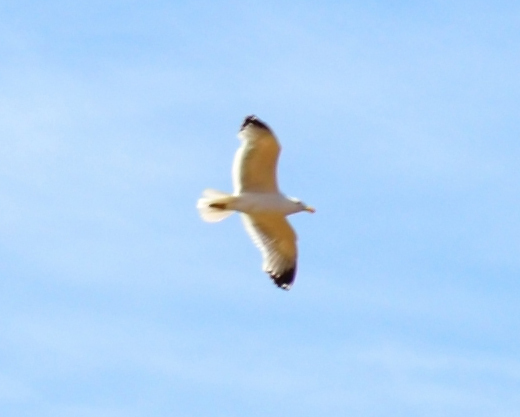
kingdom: Animalia
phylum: Chordata
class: Aves
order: Charadriiformes
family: Laridae
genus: Larus
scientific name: Larus vegae
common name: Vega gull
